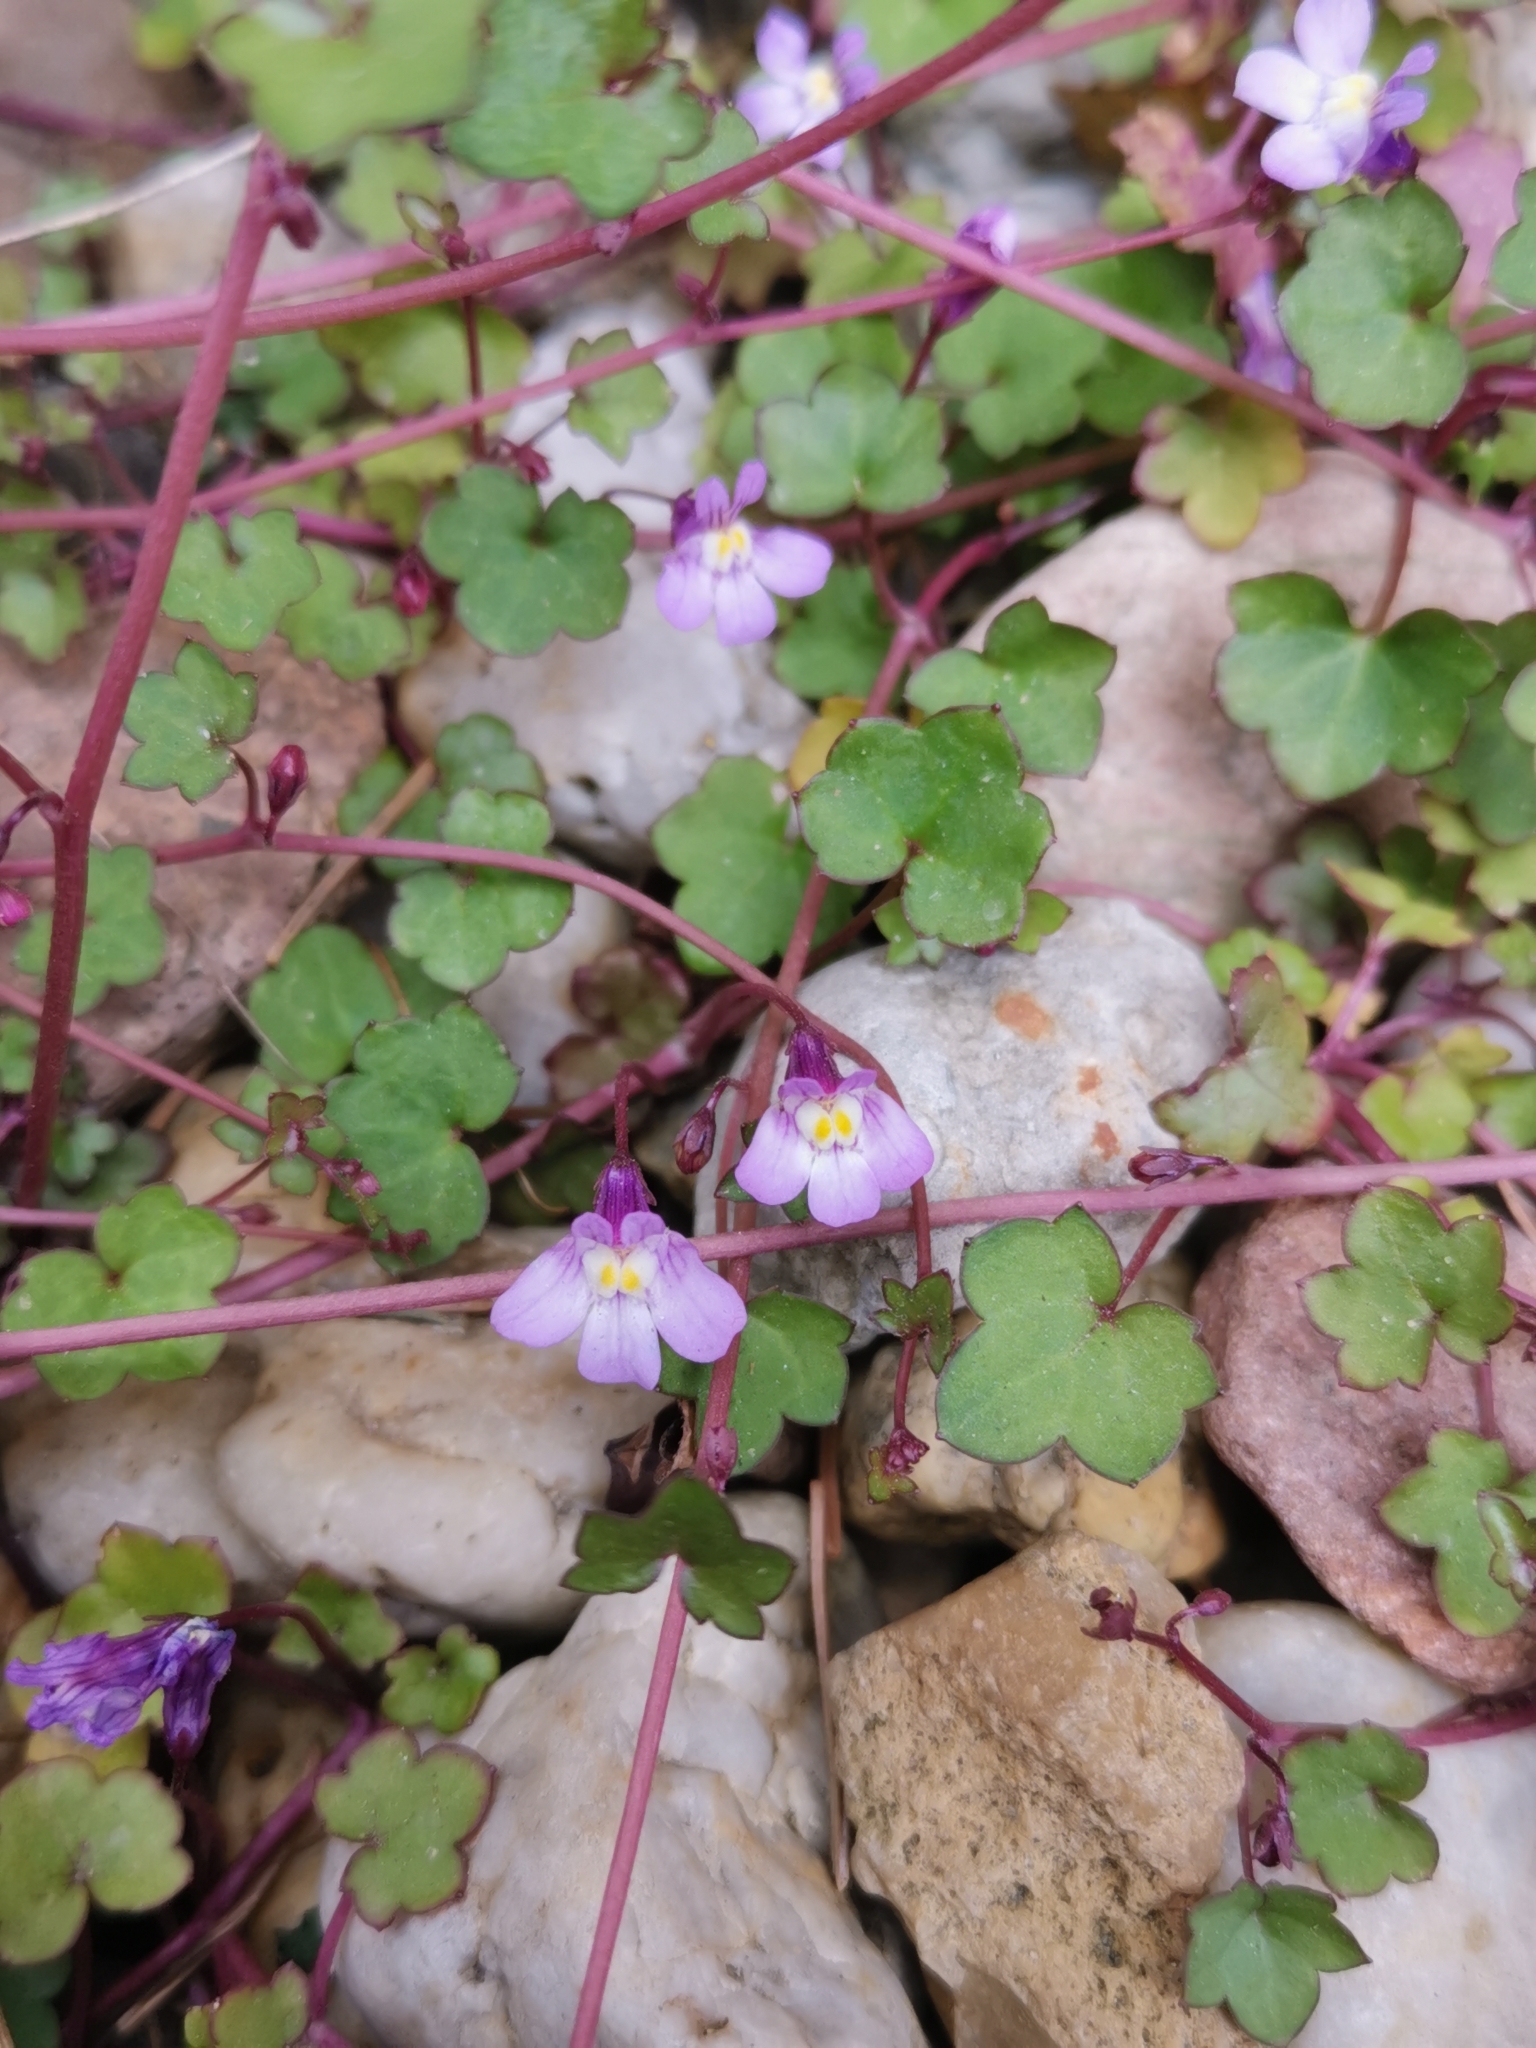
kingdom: Plantae
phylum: Tracheophyta
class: Magnoliopsida
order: Lamiales
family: Plantaginaceae
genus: Cymbalaria
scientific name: Cymbalaria muralis
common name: Ivy-leaved toadflax
